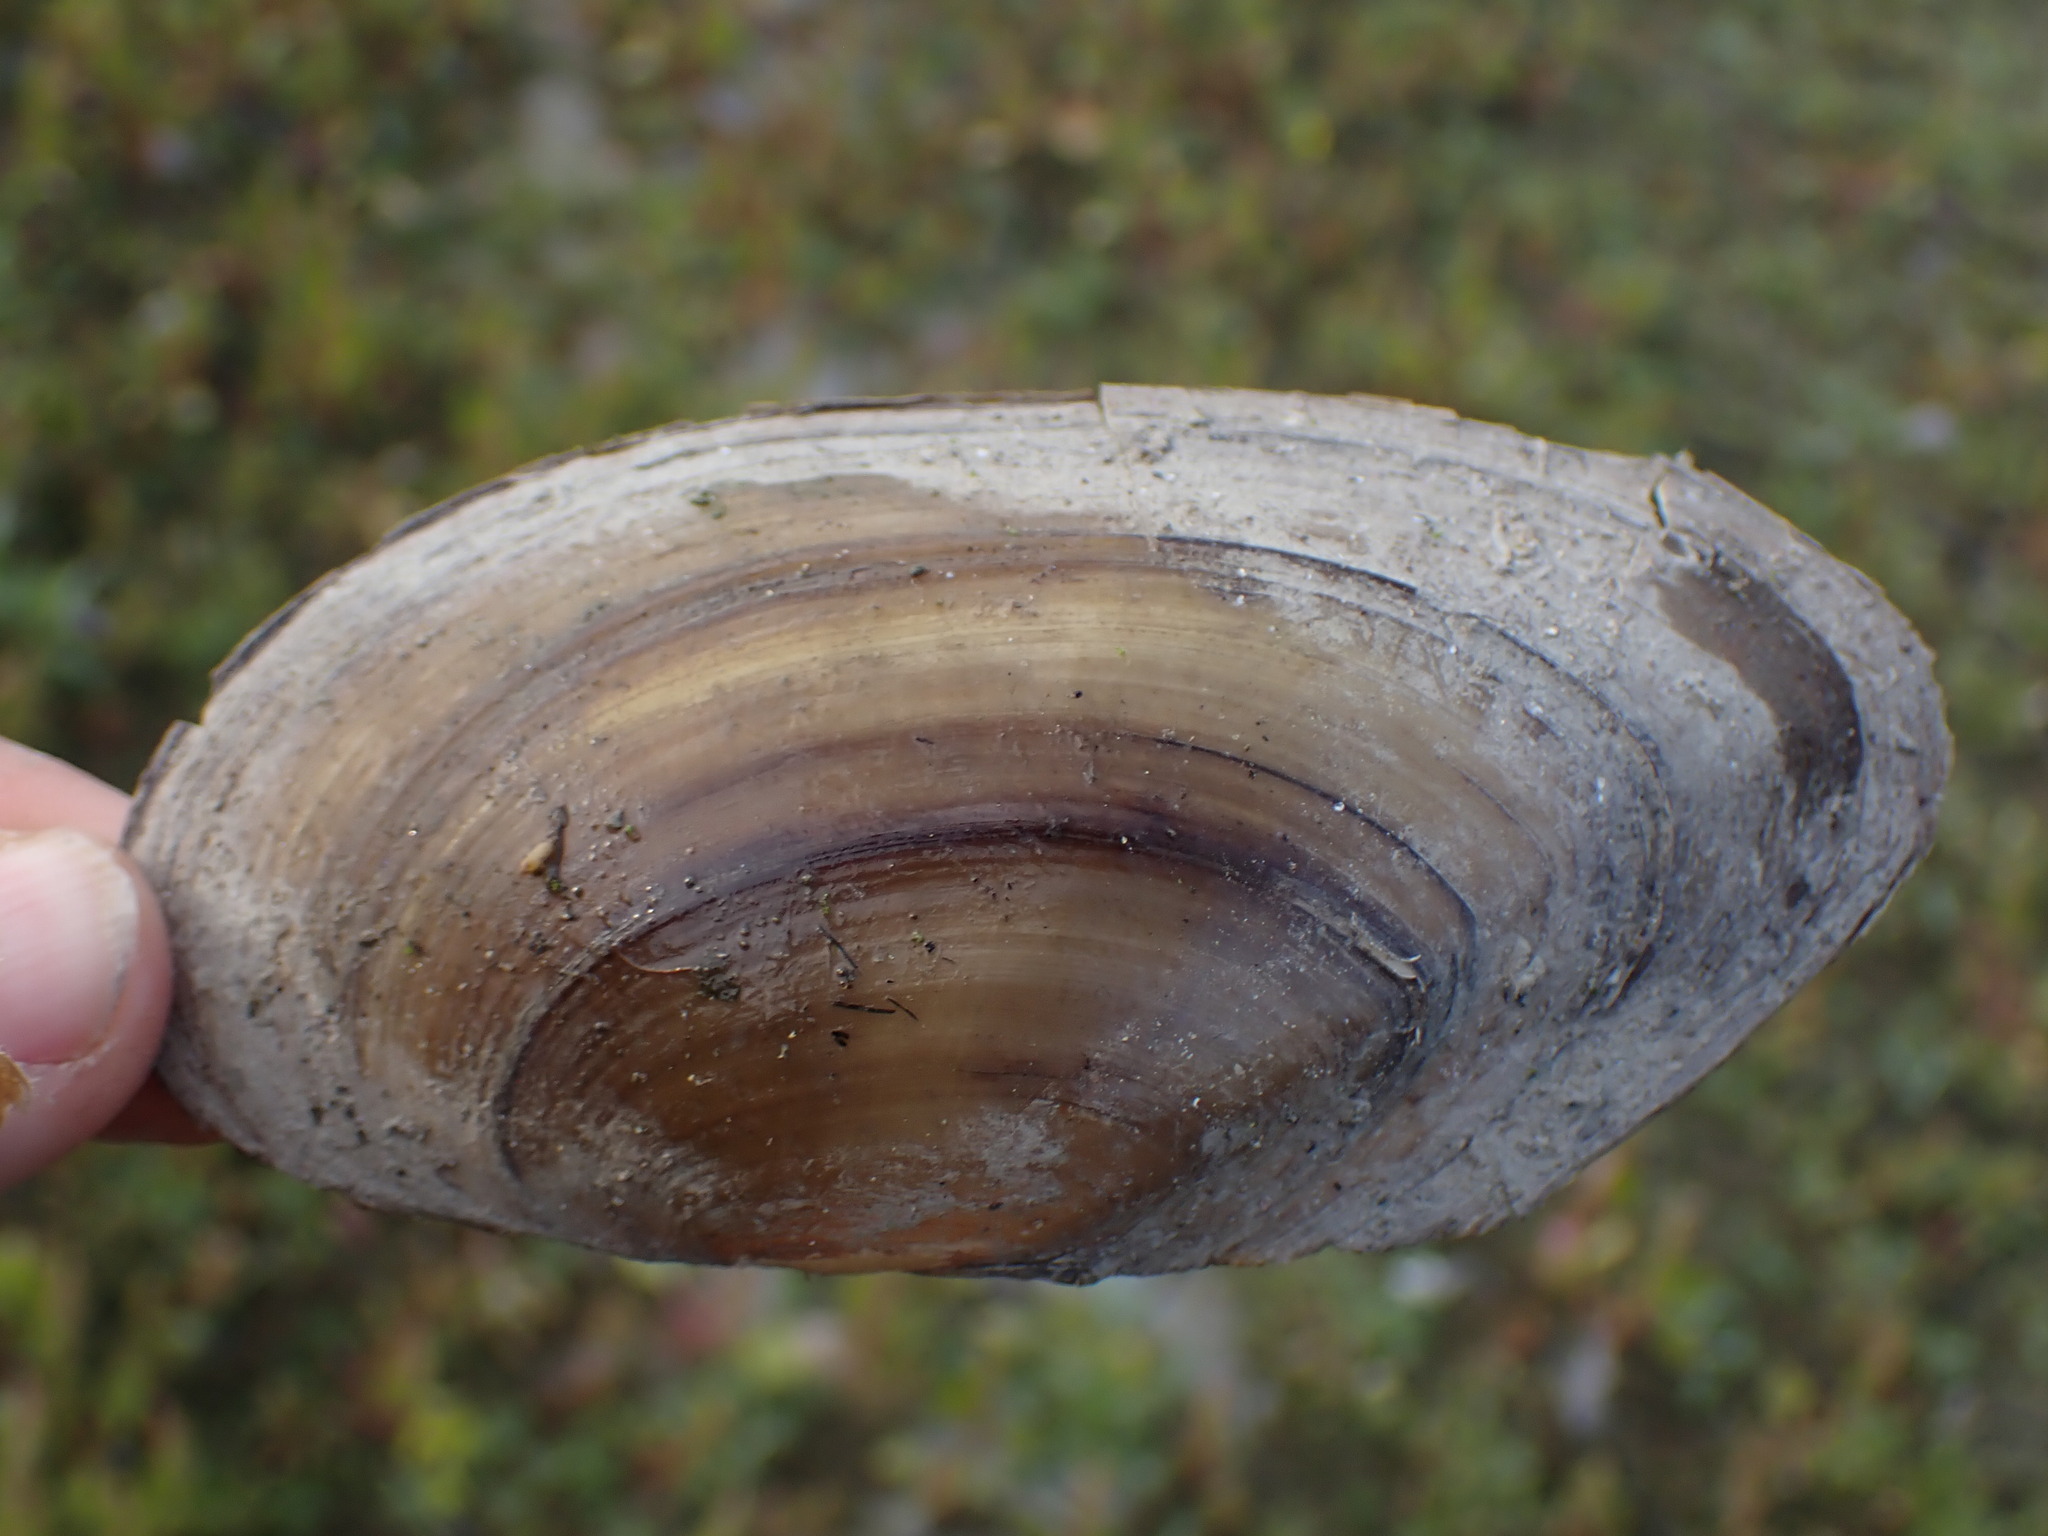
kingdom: Animalia
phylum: Mollusca
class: Bivalvia
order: Unionida
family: Unionidae
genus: Anodonta
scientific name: Anodonta kennerlyi
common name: Western floater
